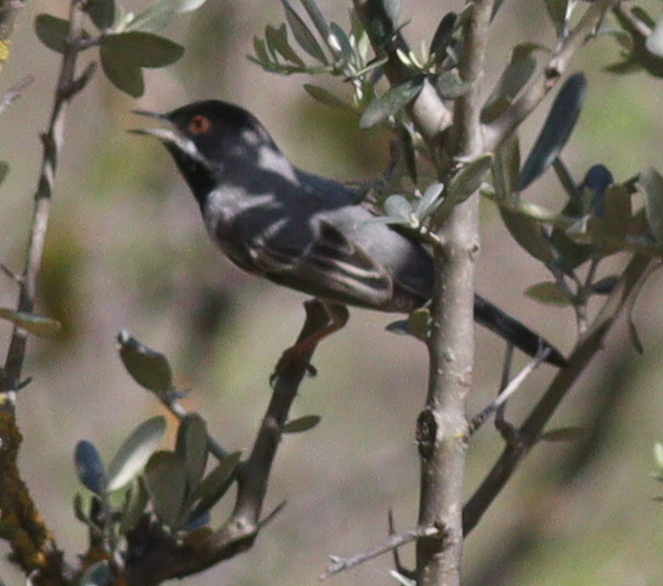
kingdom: Animalia
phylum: Chordata
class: Aves
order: Passeriformes
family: Sylviidae
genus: Sylvia
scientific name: Sylvia ruppeli
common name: Rüppell's warbler
